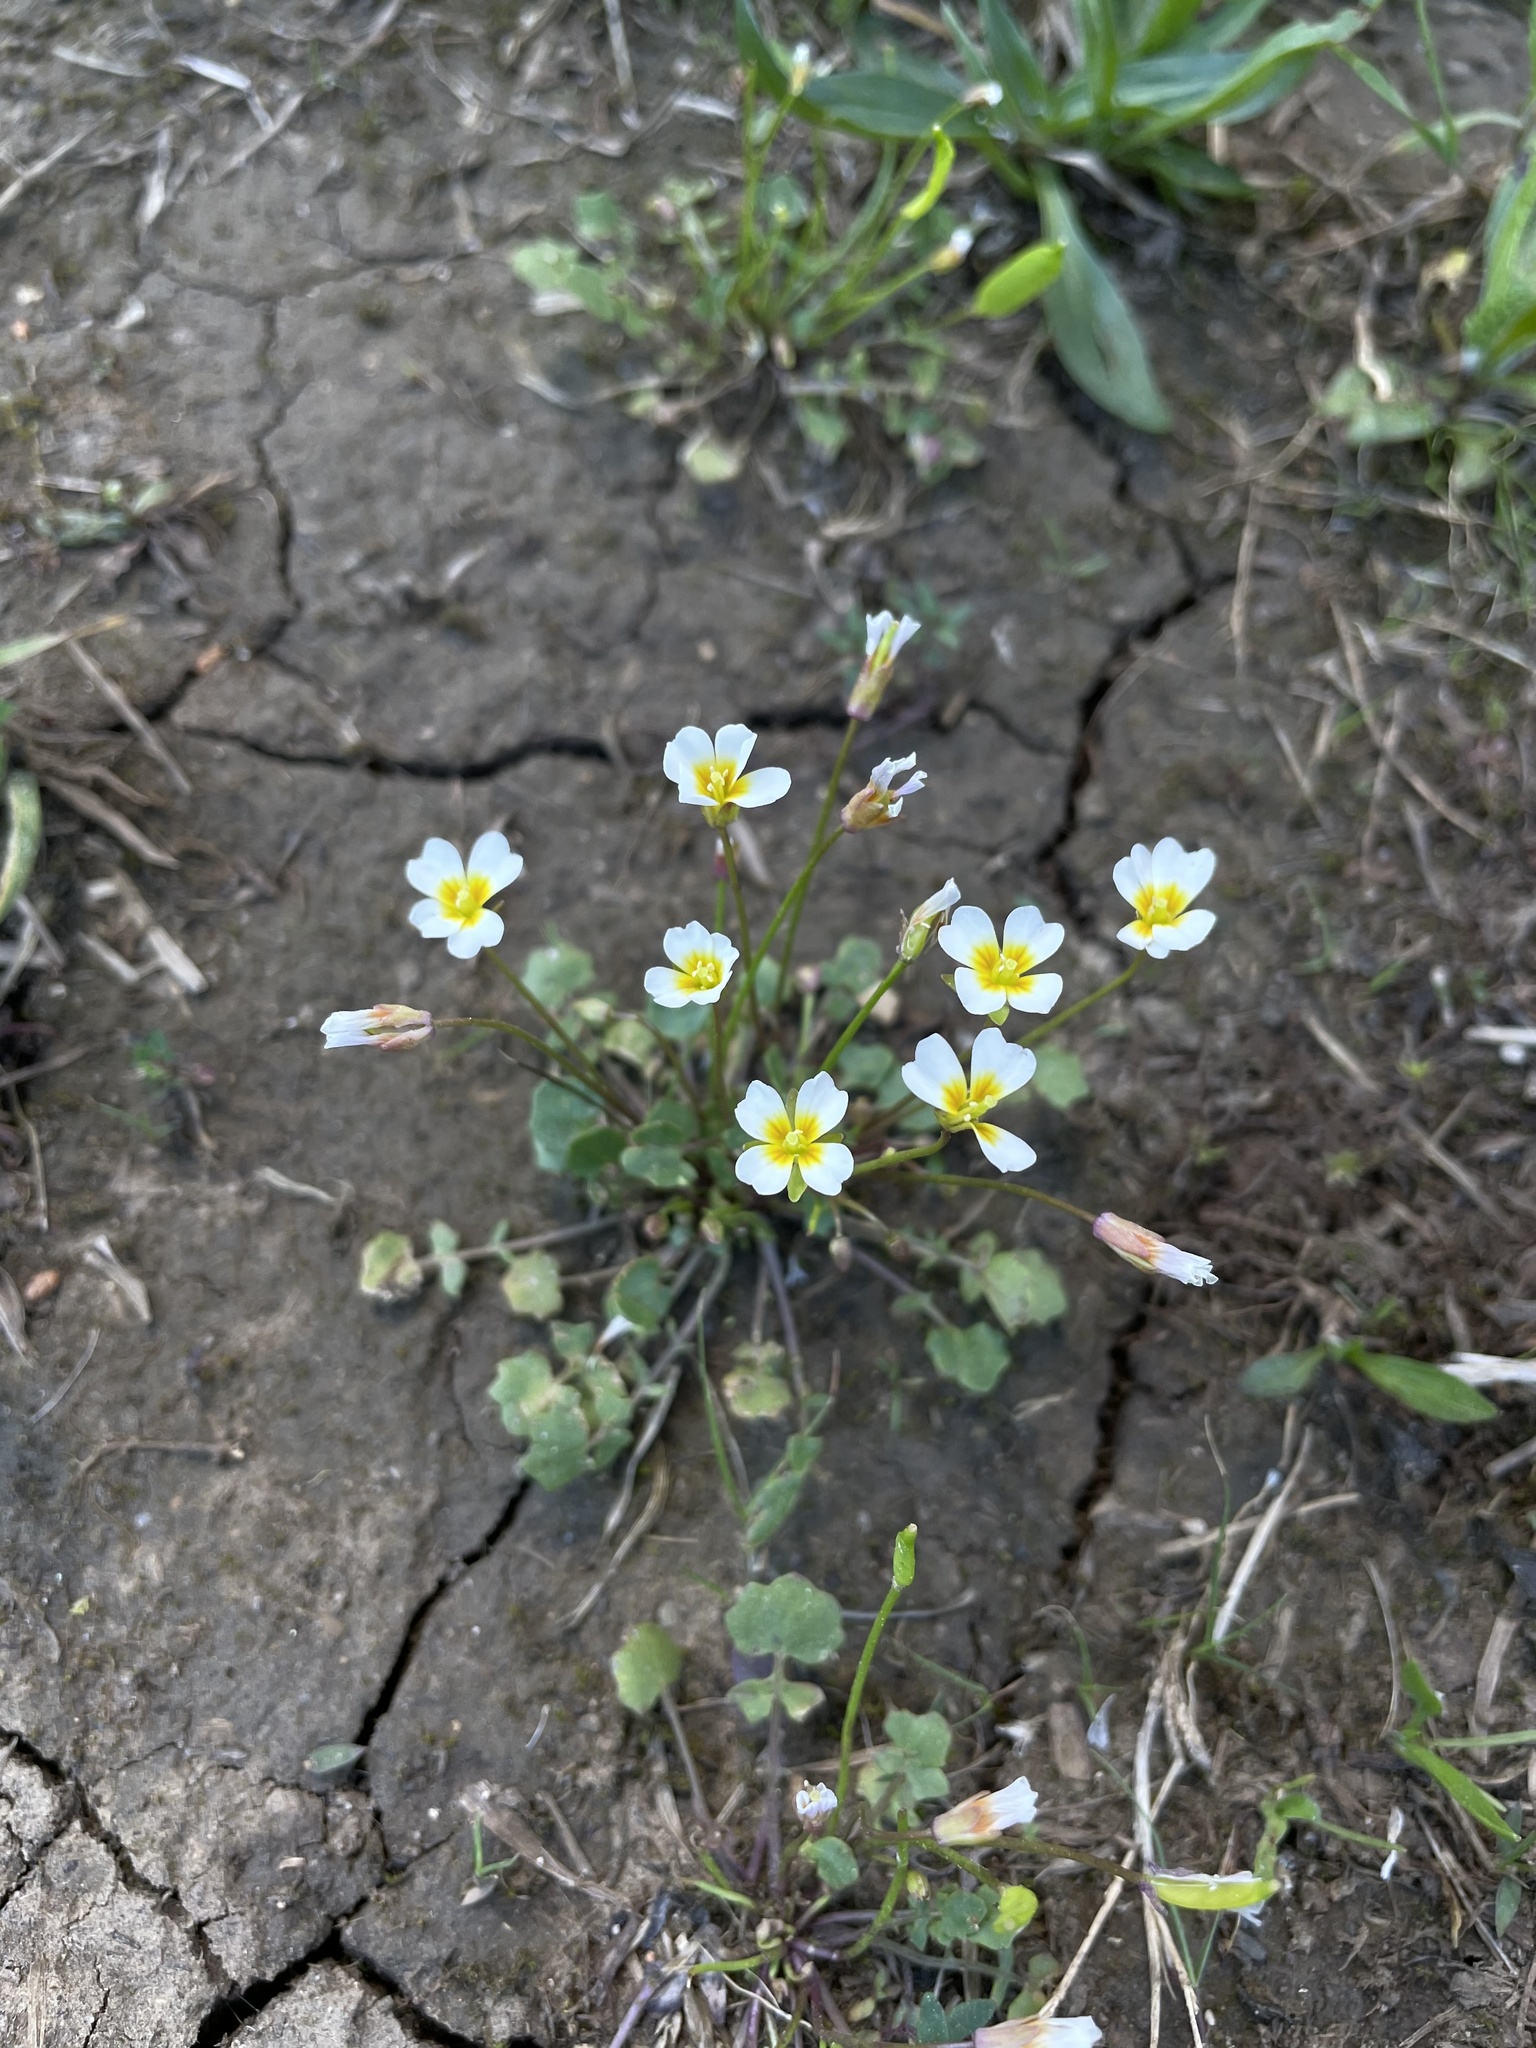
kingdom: Plantae
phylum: Tracheophyta
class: Magnoliopsida
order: Brassicales
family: Brassicaceae
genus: Leavenworthia
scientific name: Leavenworthia exigua
